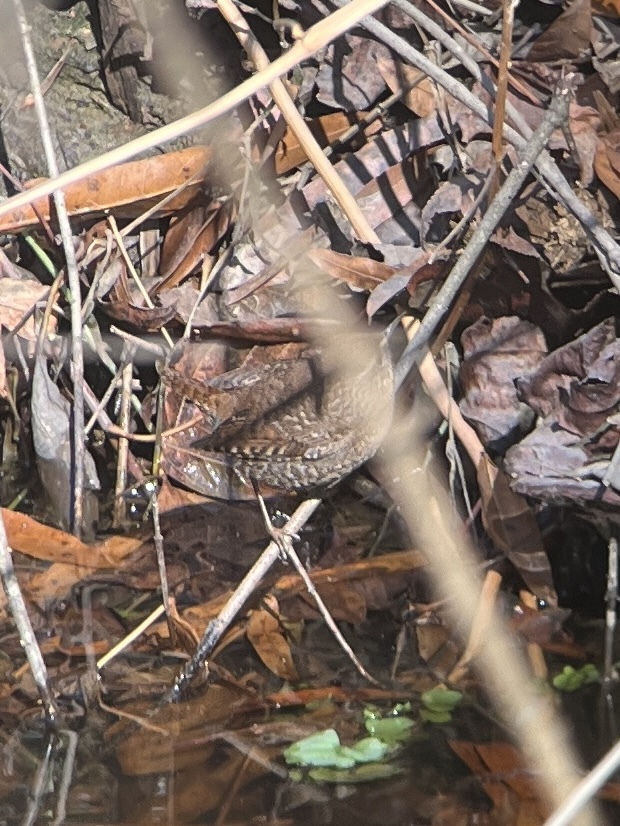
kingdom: Animalia
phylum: Chordata
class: Aves
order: Passeriformes
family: Troglodytidae
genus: Troglodytes
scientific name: Troglodytes hiemalis
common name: Winter wren
